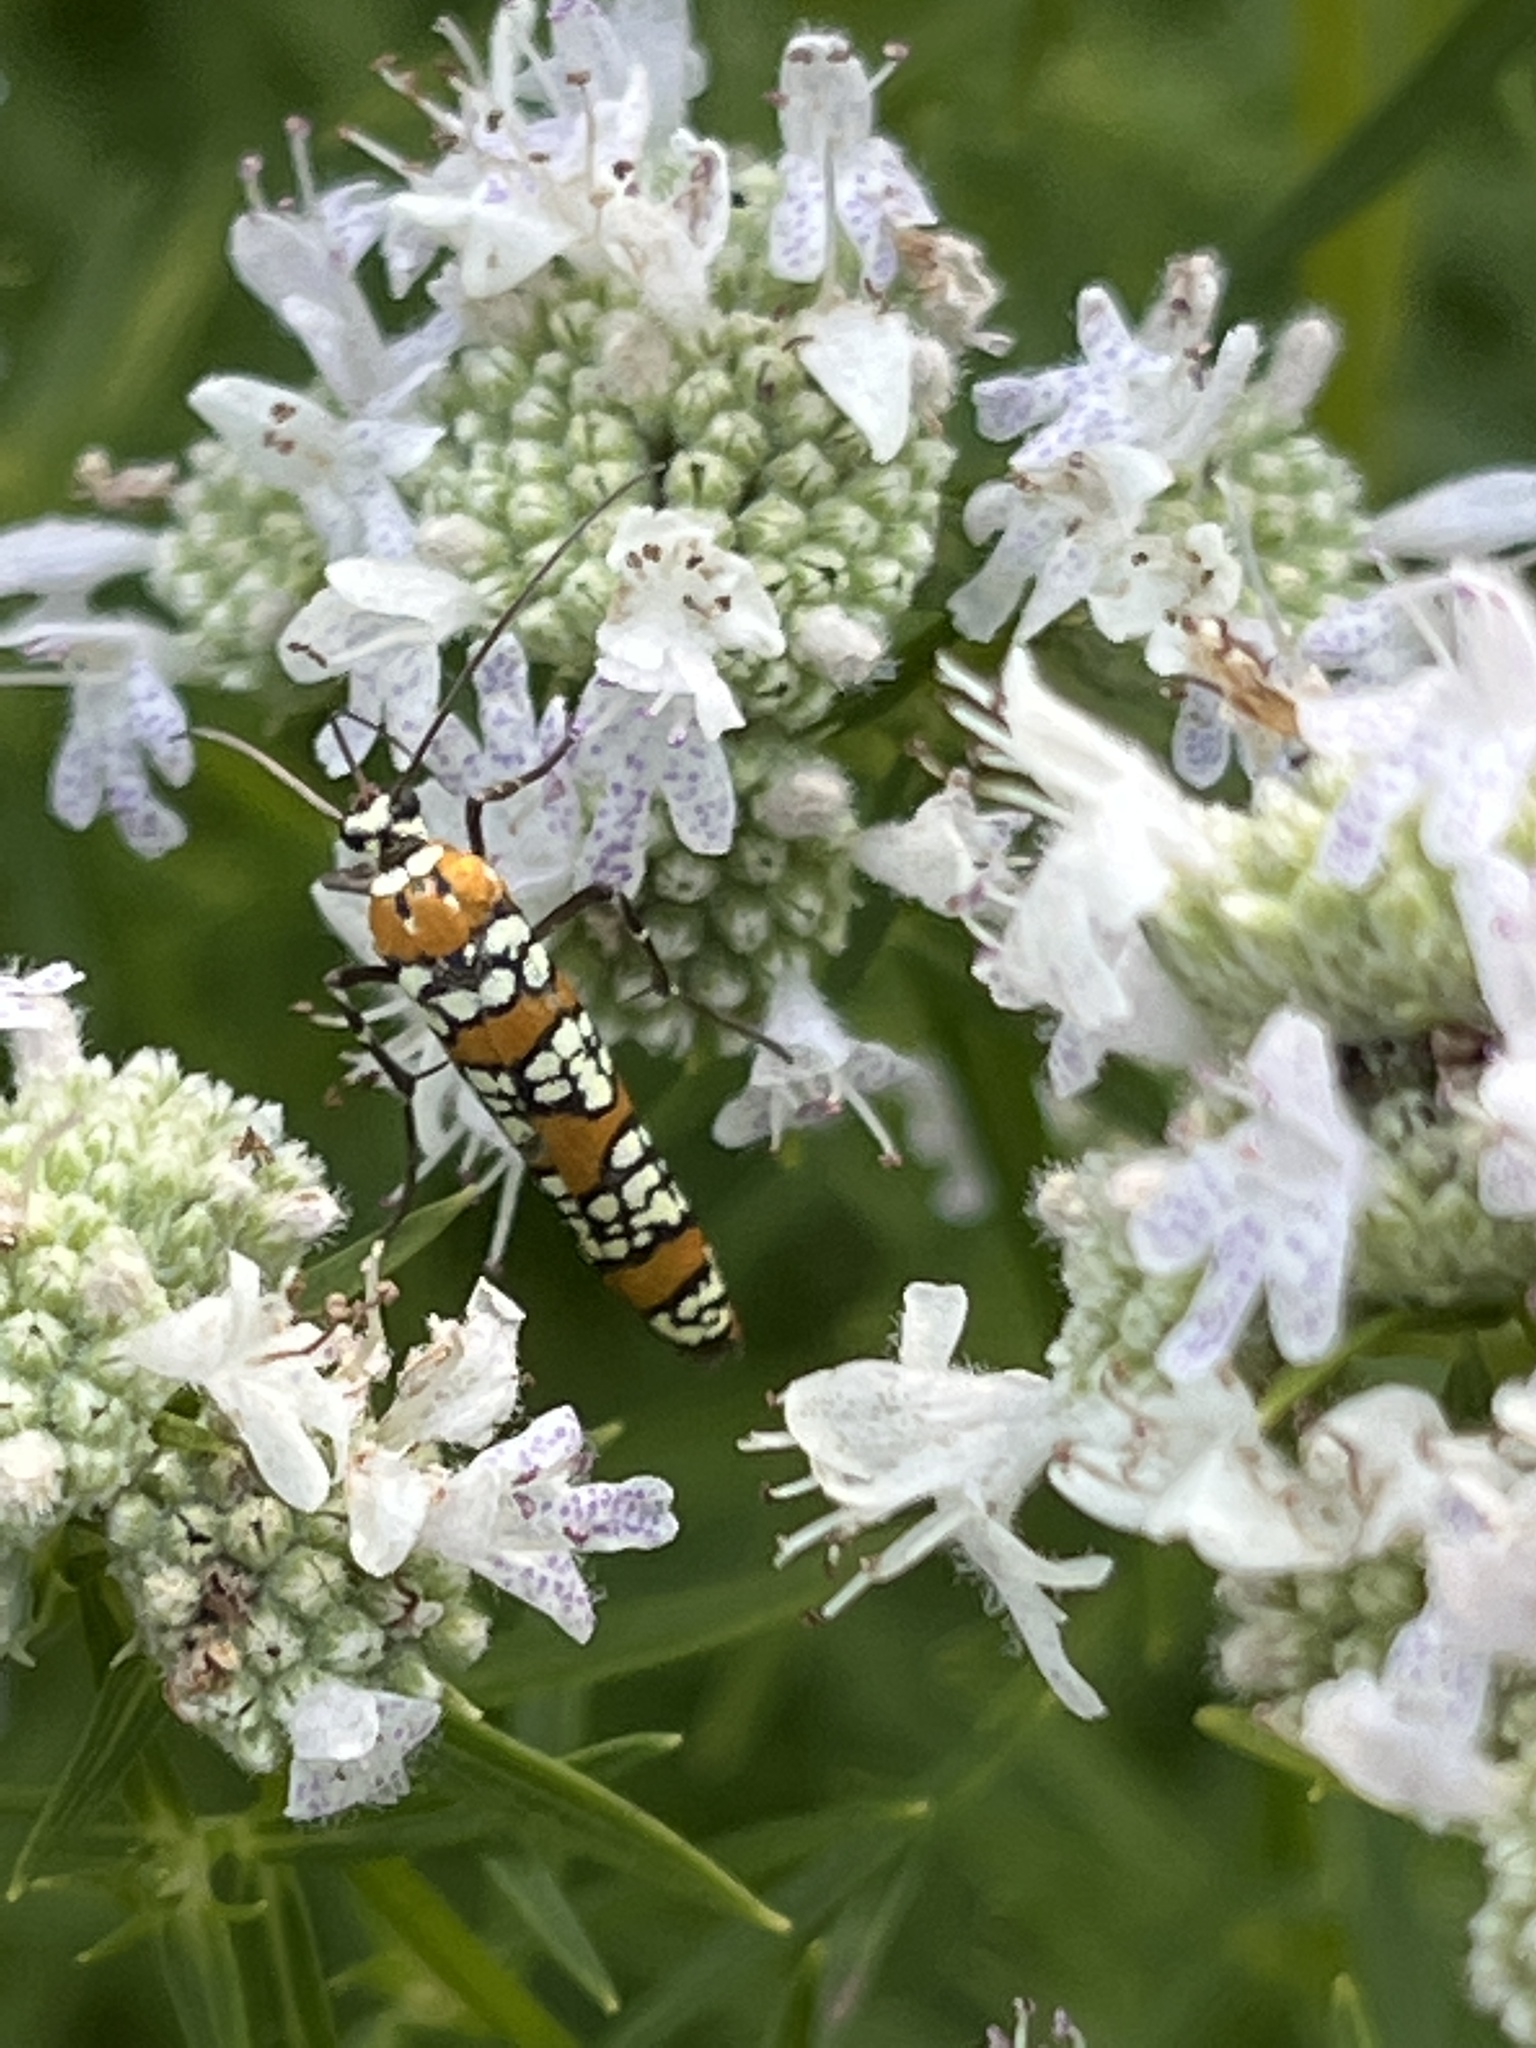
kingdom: Animalia
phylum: Arthropoda
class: Insecta
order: Lepidoptera
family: Attevidae
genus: Atteva
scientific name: Atteva punctella
